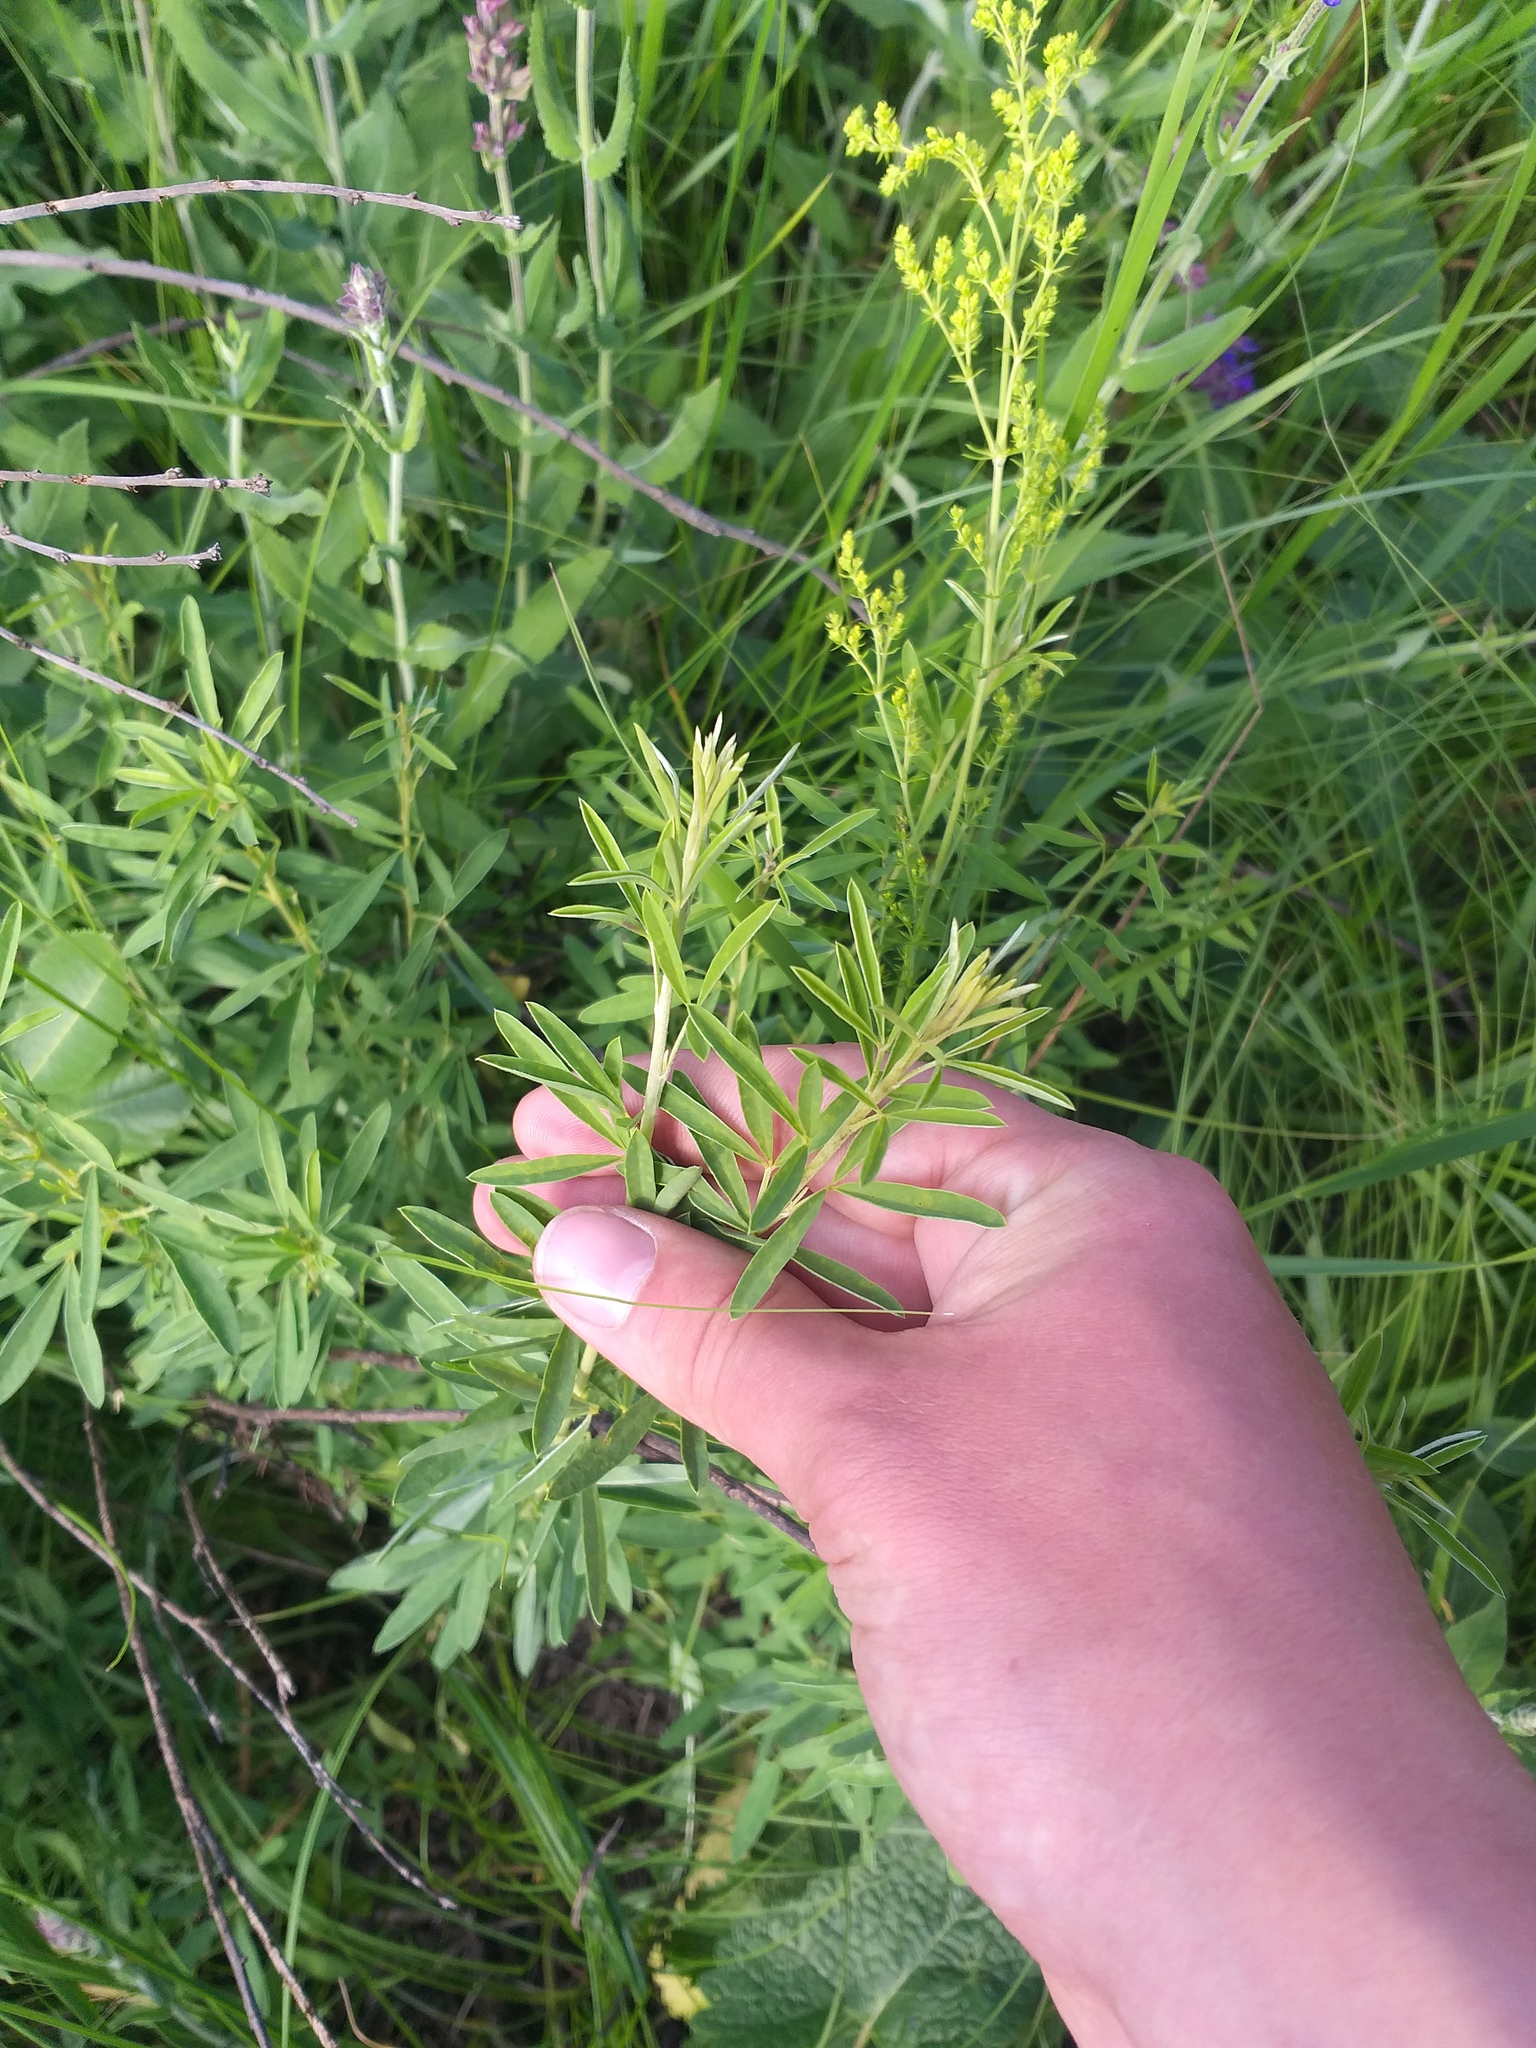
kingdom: Plantae
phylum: Tracheophyta
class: Magnoliopsida
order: Fabales
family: Fabaceae
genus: Chamaecytisus
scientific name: Chamaecytisus ruthenicus
